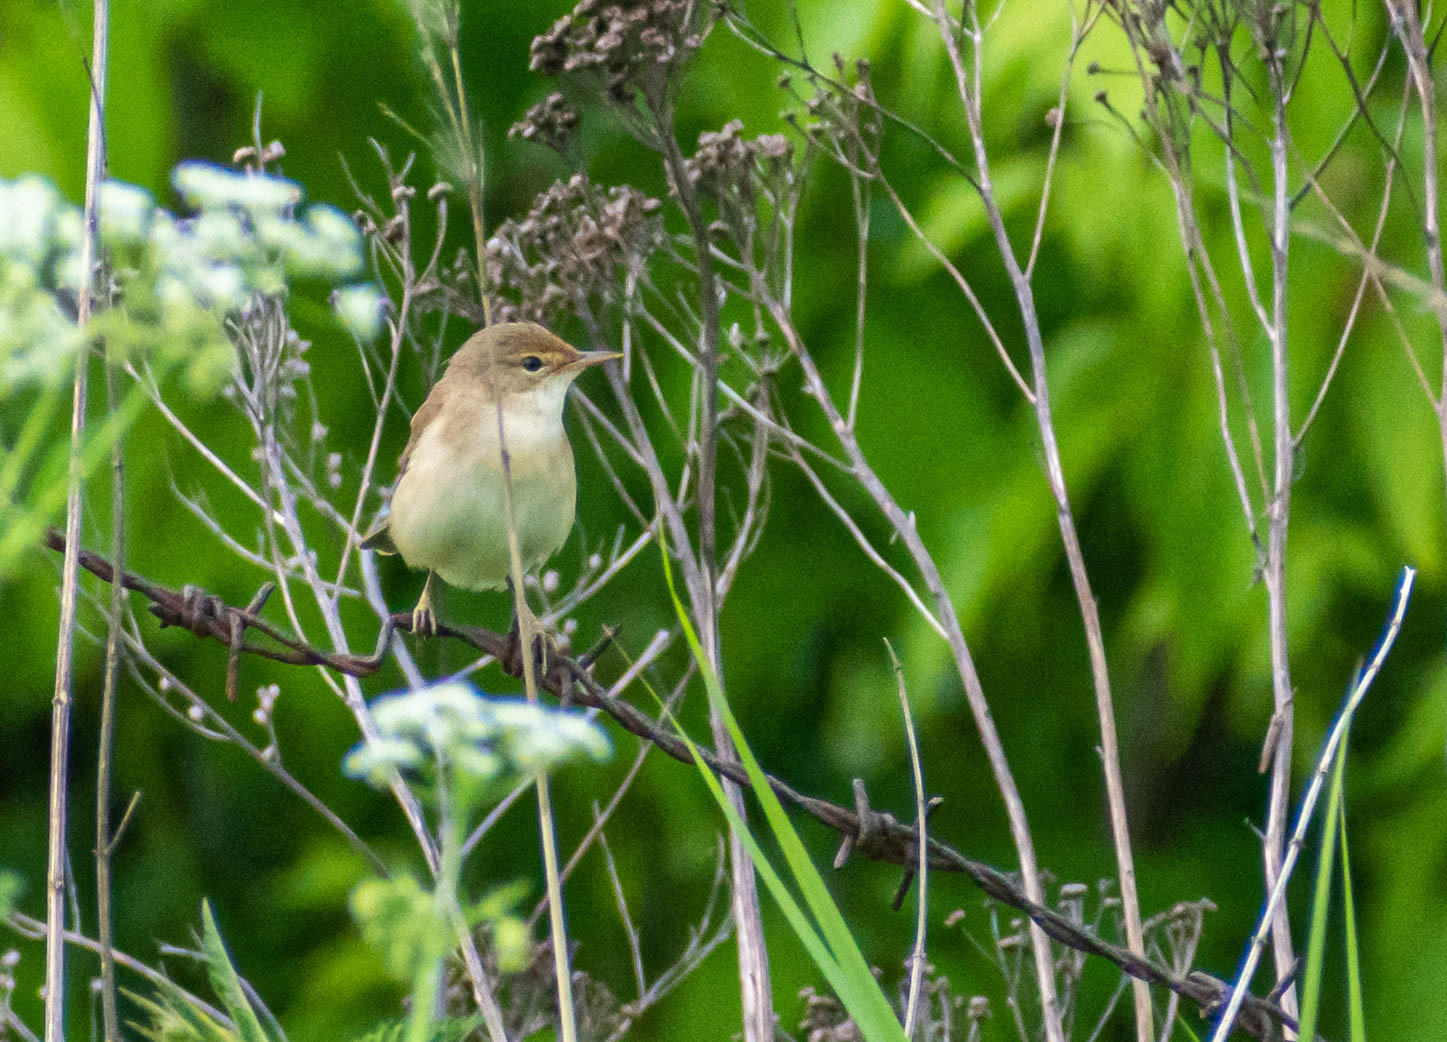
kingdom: Animalia
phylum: Chordata
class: Aves
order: Passeriformes
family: Acrocephalidae
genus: Iduna
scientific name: Iduna caligata
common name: Booted warbler
